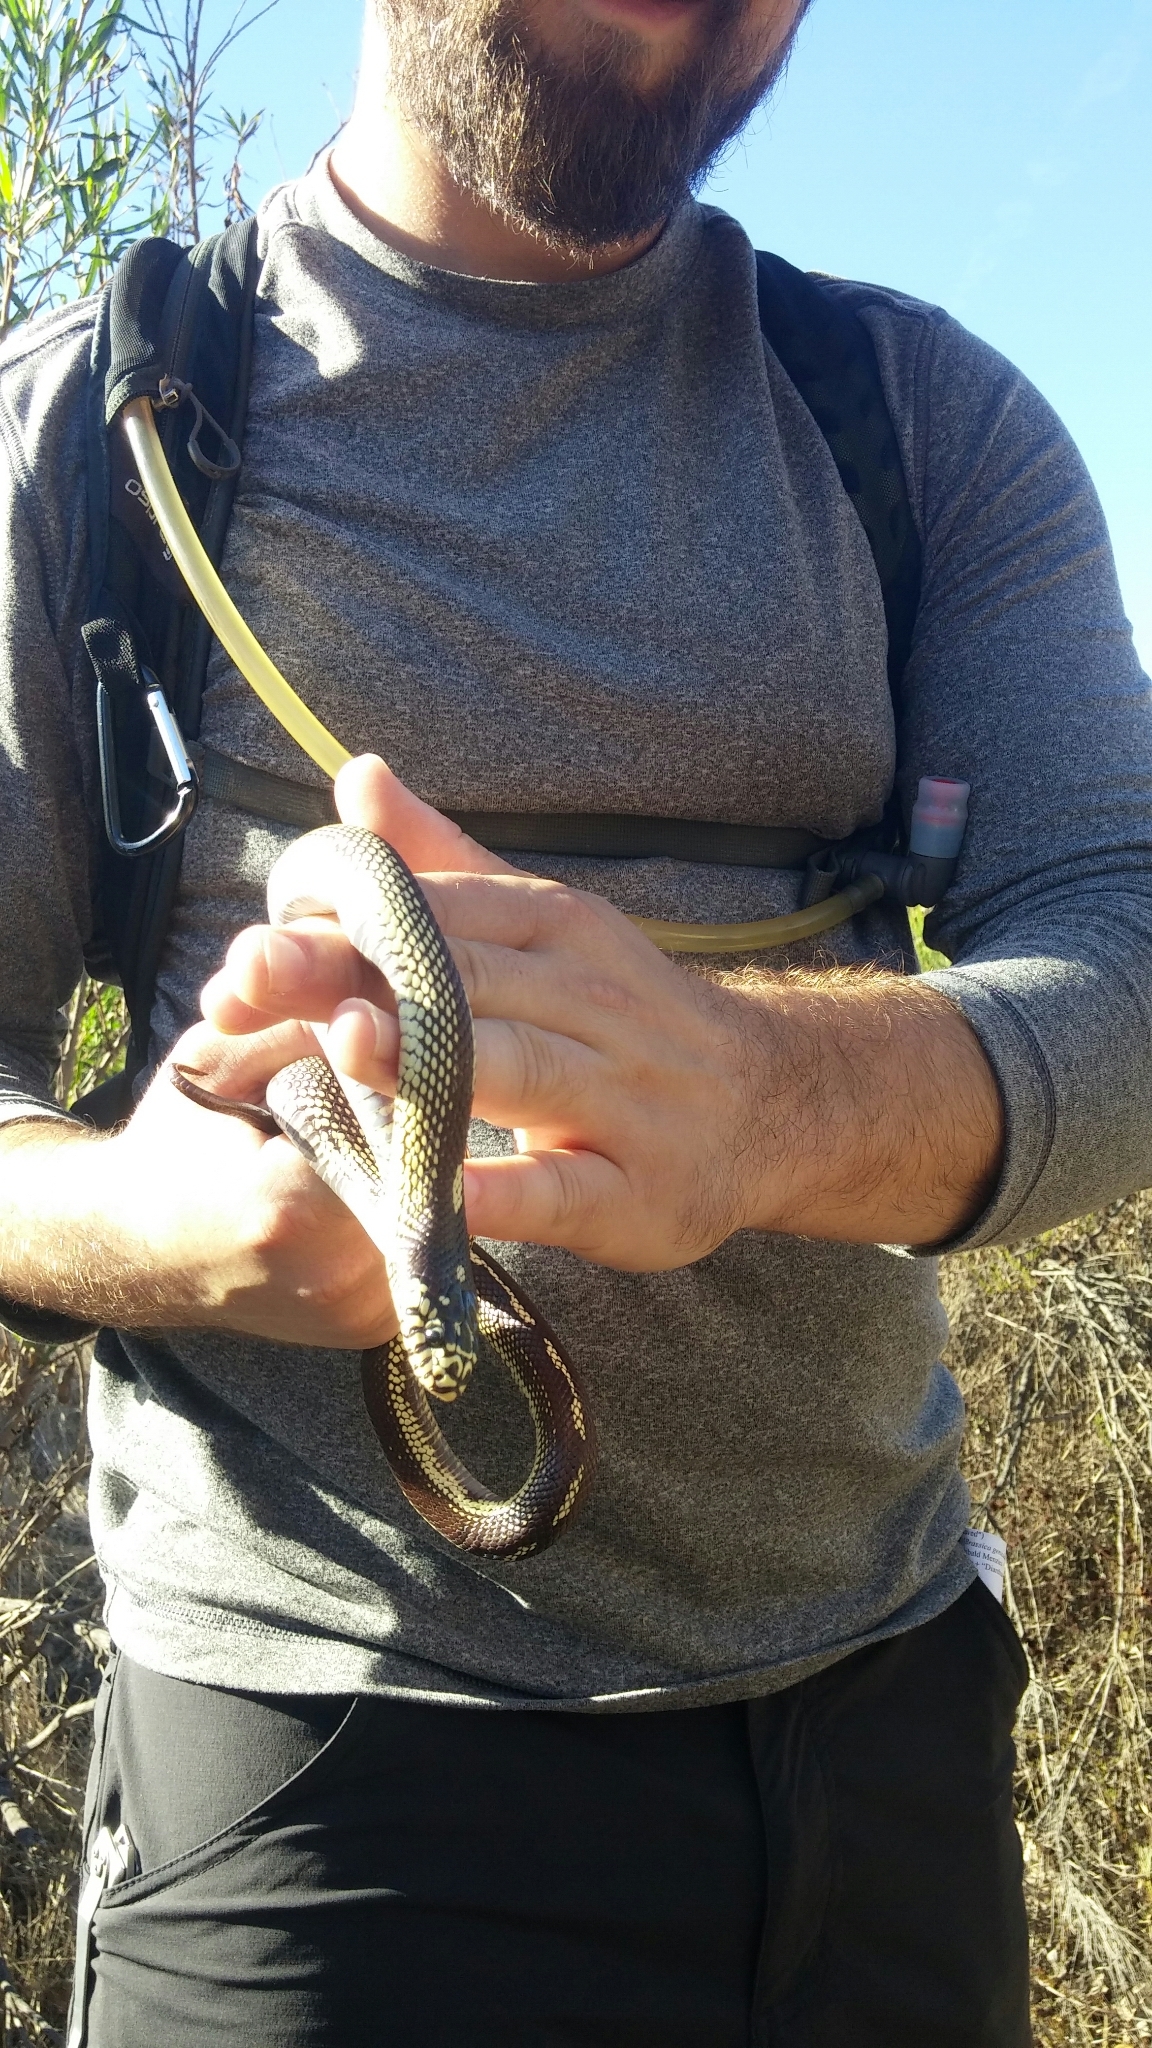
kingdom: Animalia
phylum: Chordata
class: Squamata
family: Colubridae
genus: Lampropeltis
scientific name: Lampropeltis californiae
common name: California kingsnake
